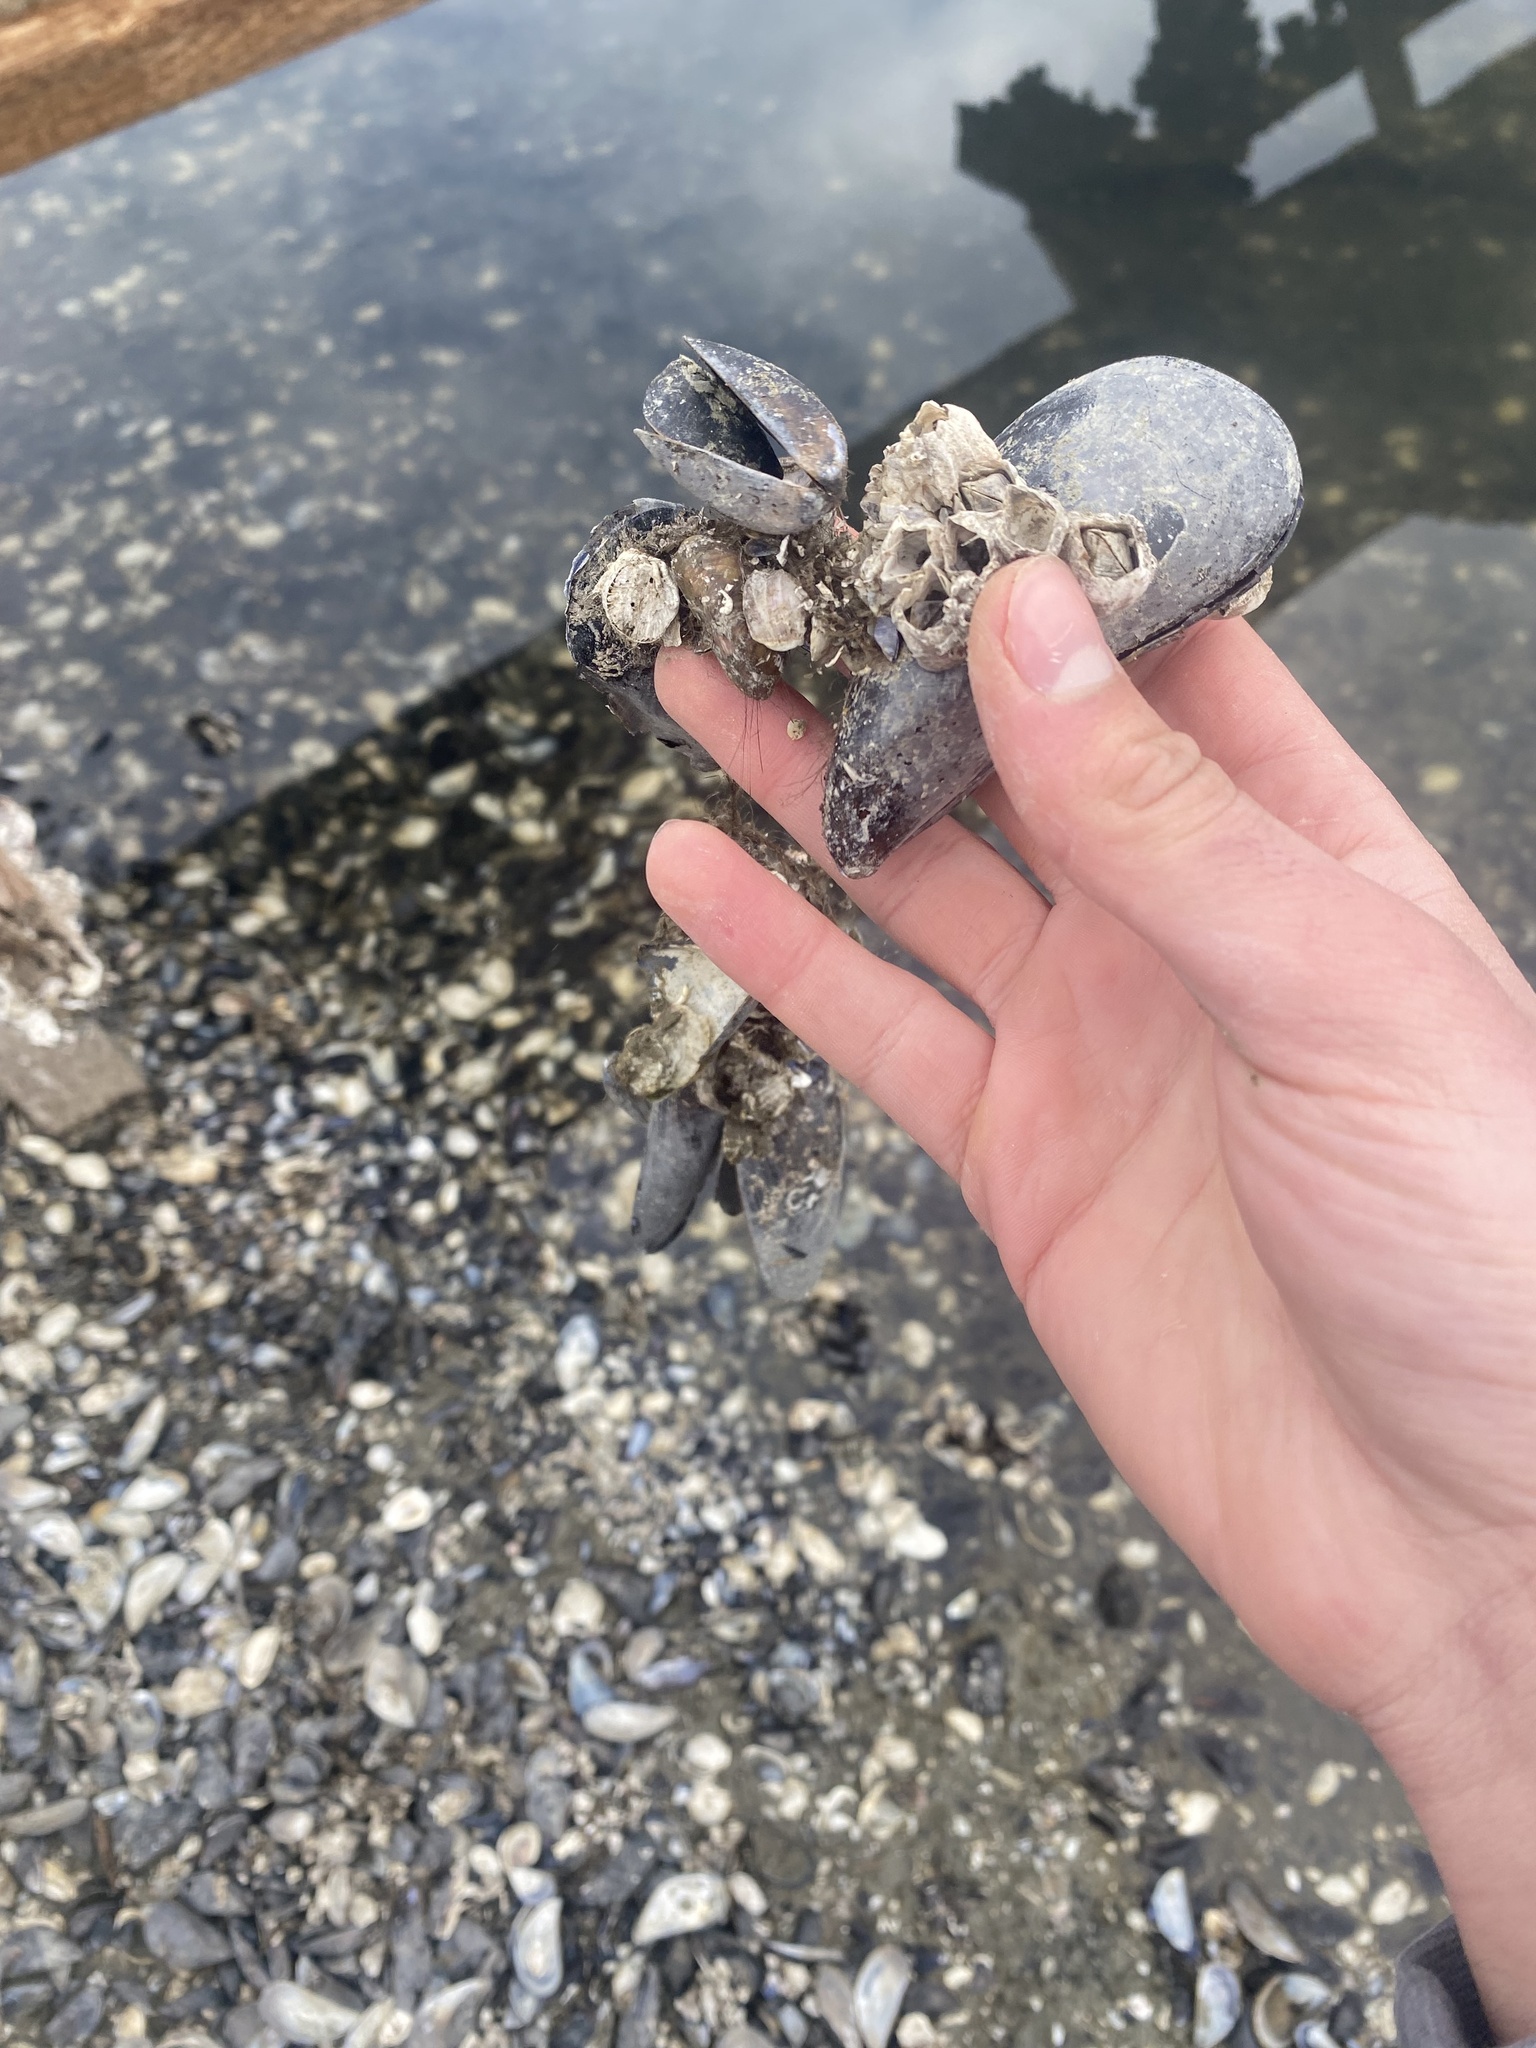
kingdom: Animalia
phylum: Mollusca
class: Bivalvia
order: Mytilida
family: Mytilidae
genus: Mytilus
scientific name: Mytilus
